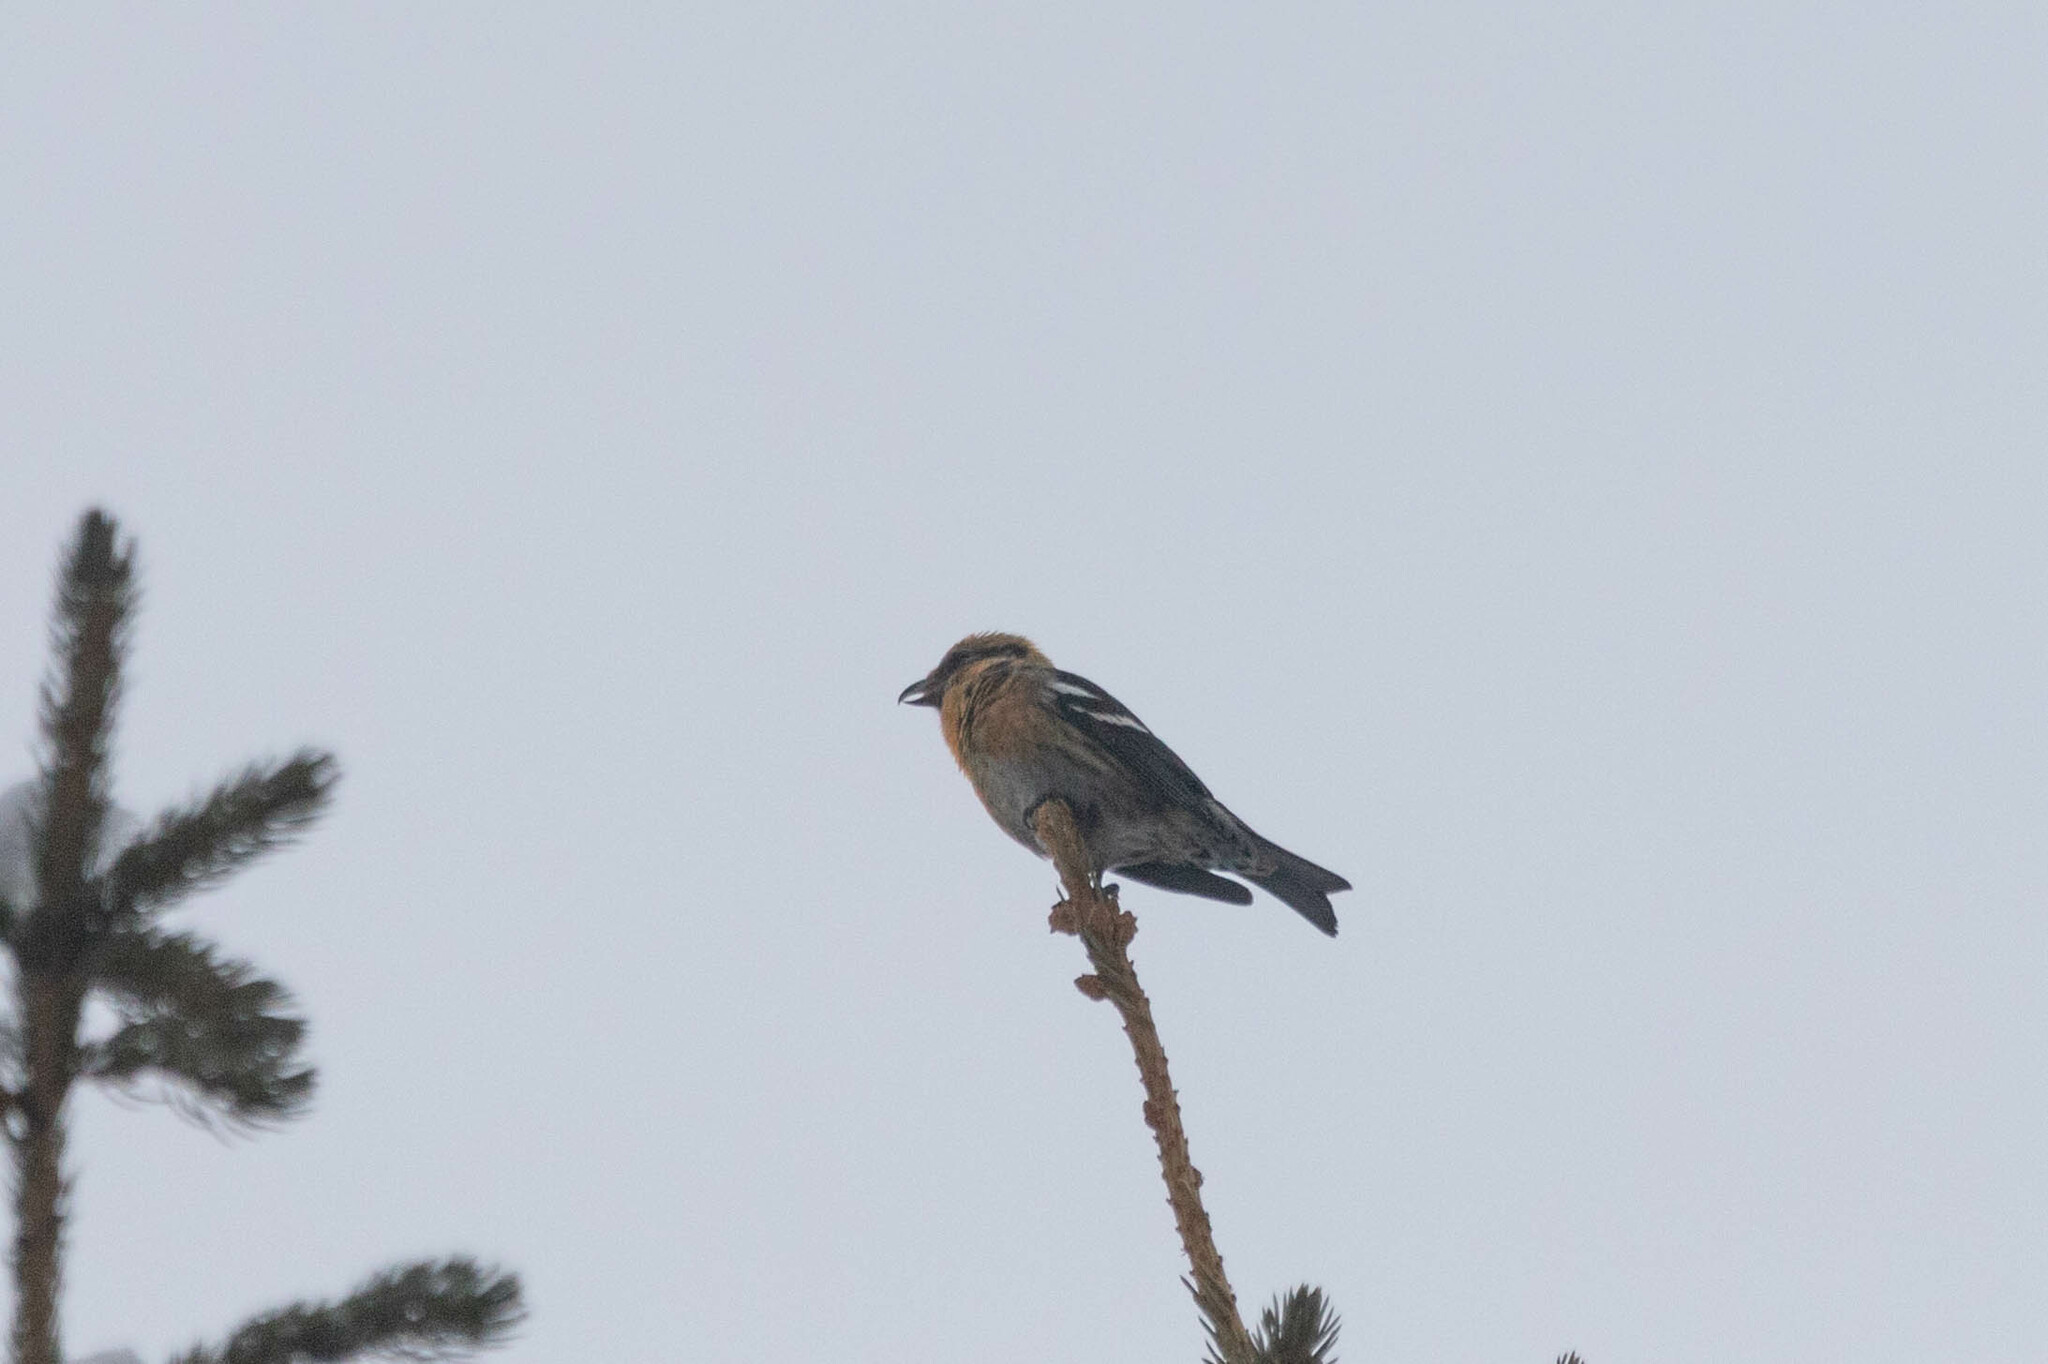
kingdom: Animalia
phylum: Chordata
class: Aves
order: Passeriformes
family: Fringillidae
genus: Loxia
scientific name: Loxia leucoptera
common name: Two-barred crossbill
